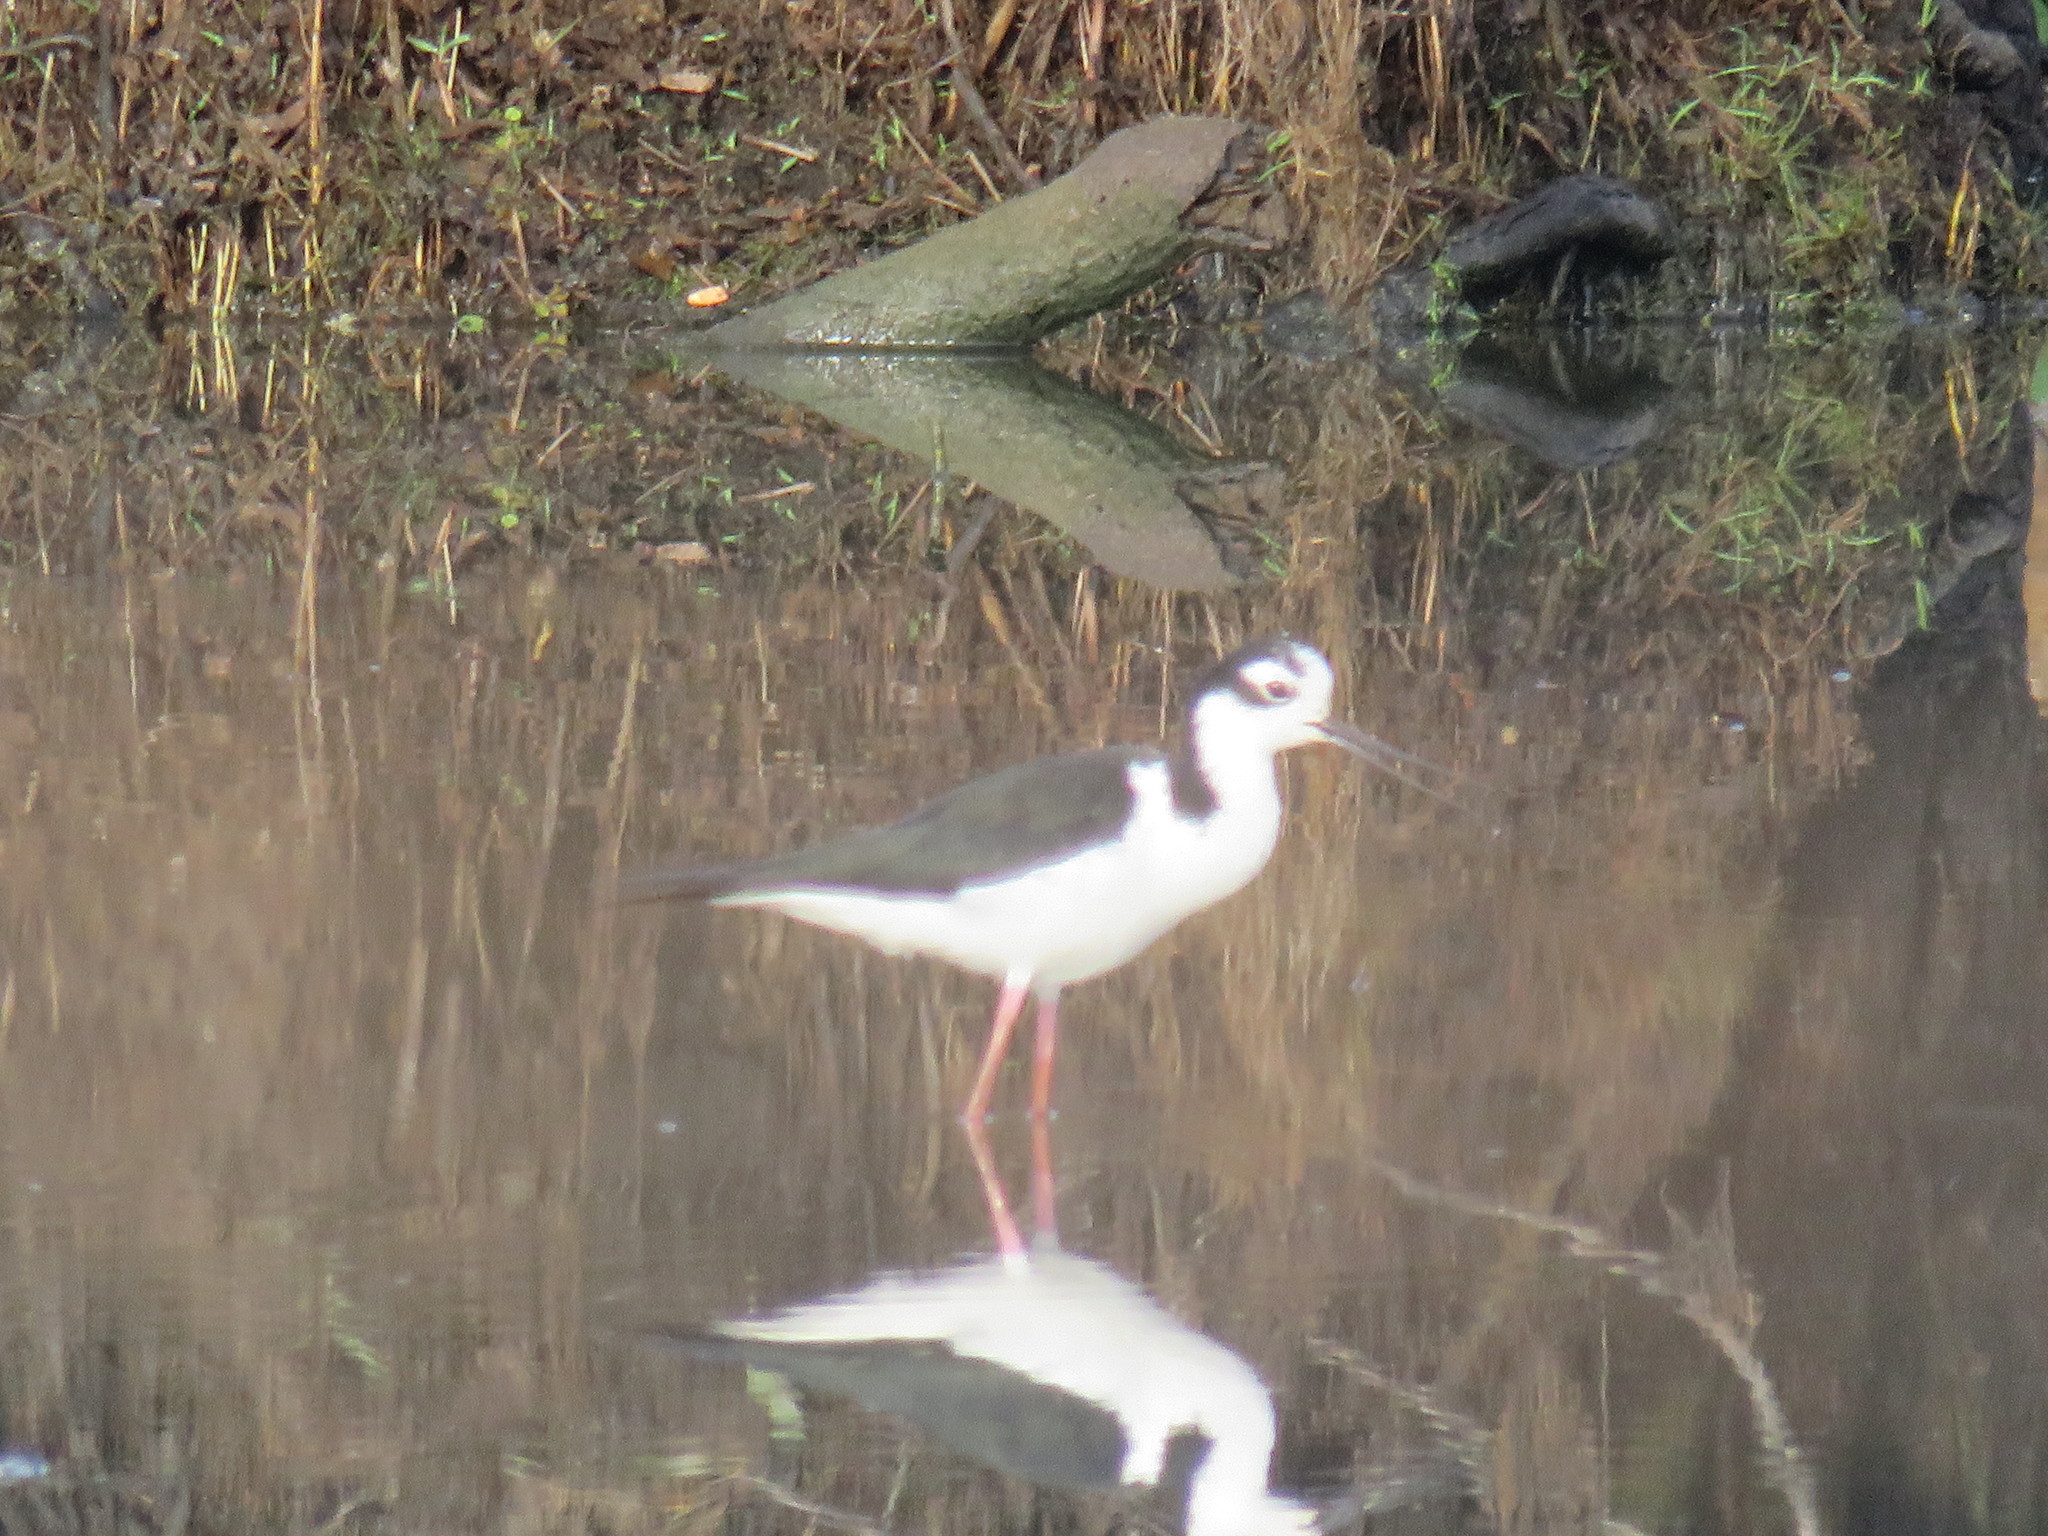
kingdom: Animalia
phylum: Chordata
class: Aves
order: Charadriiformes
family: Recurvirostridae
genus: Himantopus
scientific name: Himantopus mexicanus
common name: Black-necked stilt
